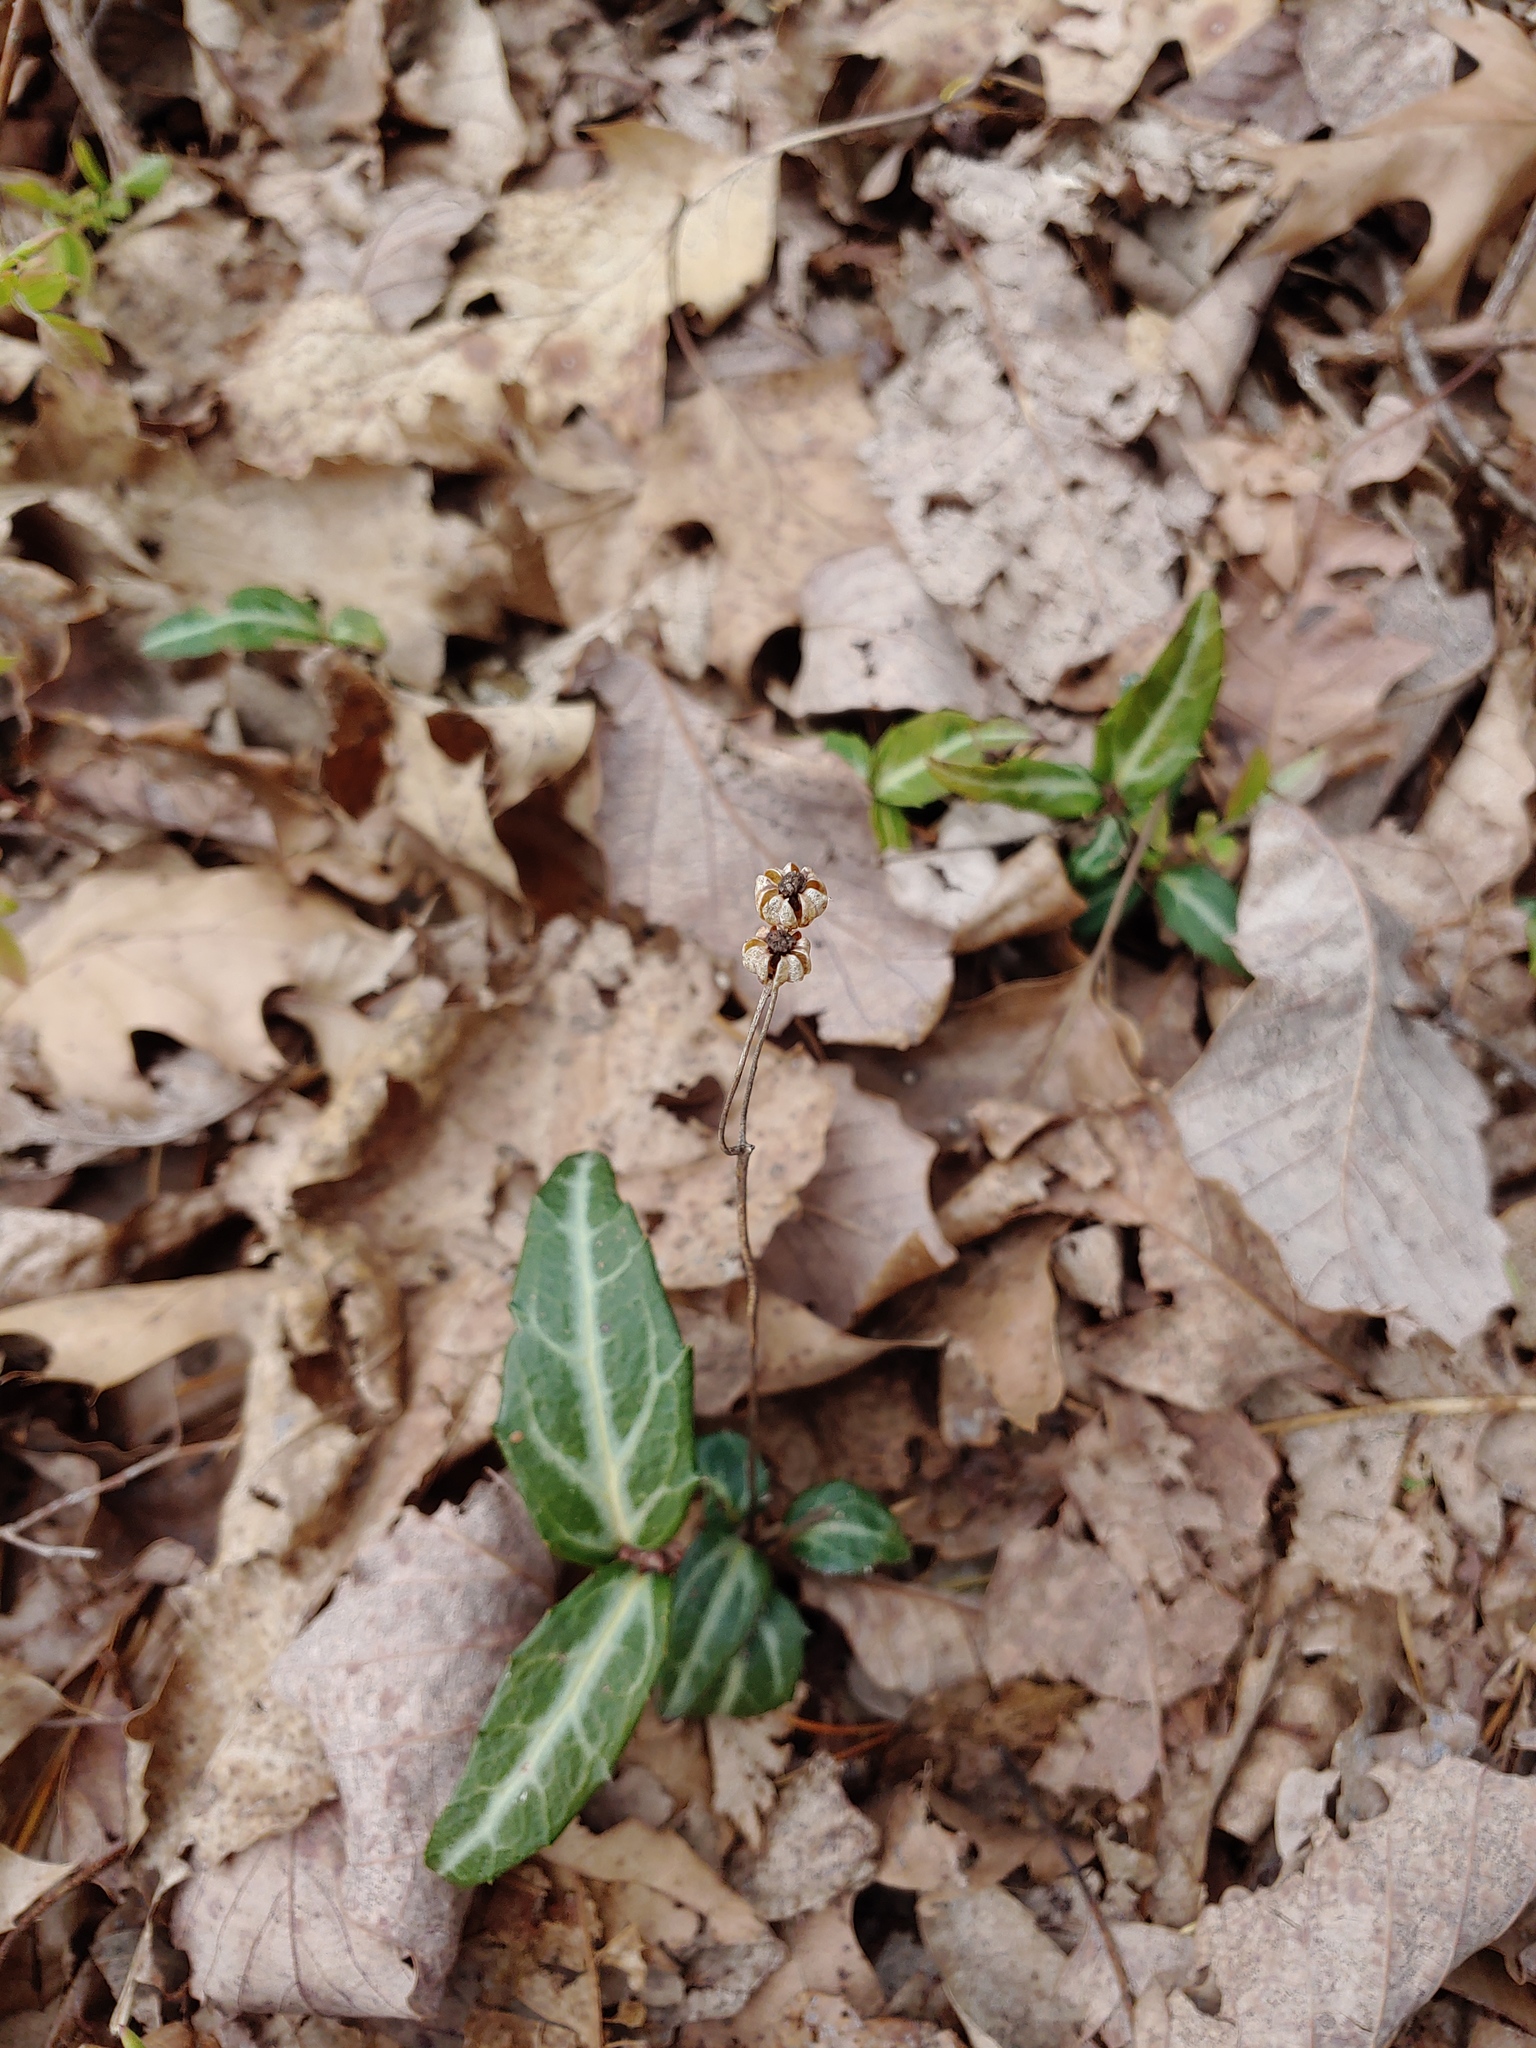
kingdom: Plantae
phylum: Tracheophyta
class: Magnoliopsida
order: Ericales
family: Ericaceae
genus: Chimaphila
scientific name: Chimaphila maculata
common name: Spotted pipsissewa
